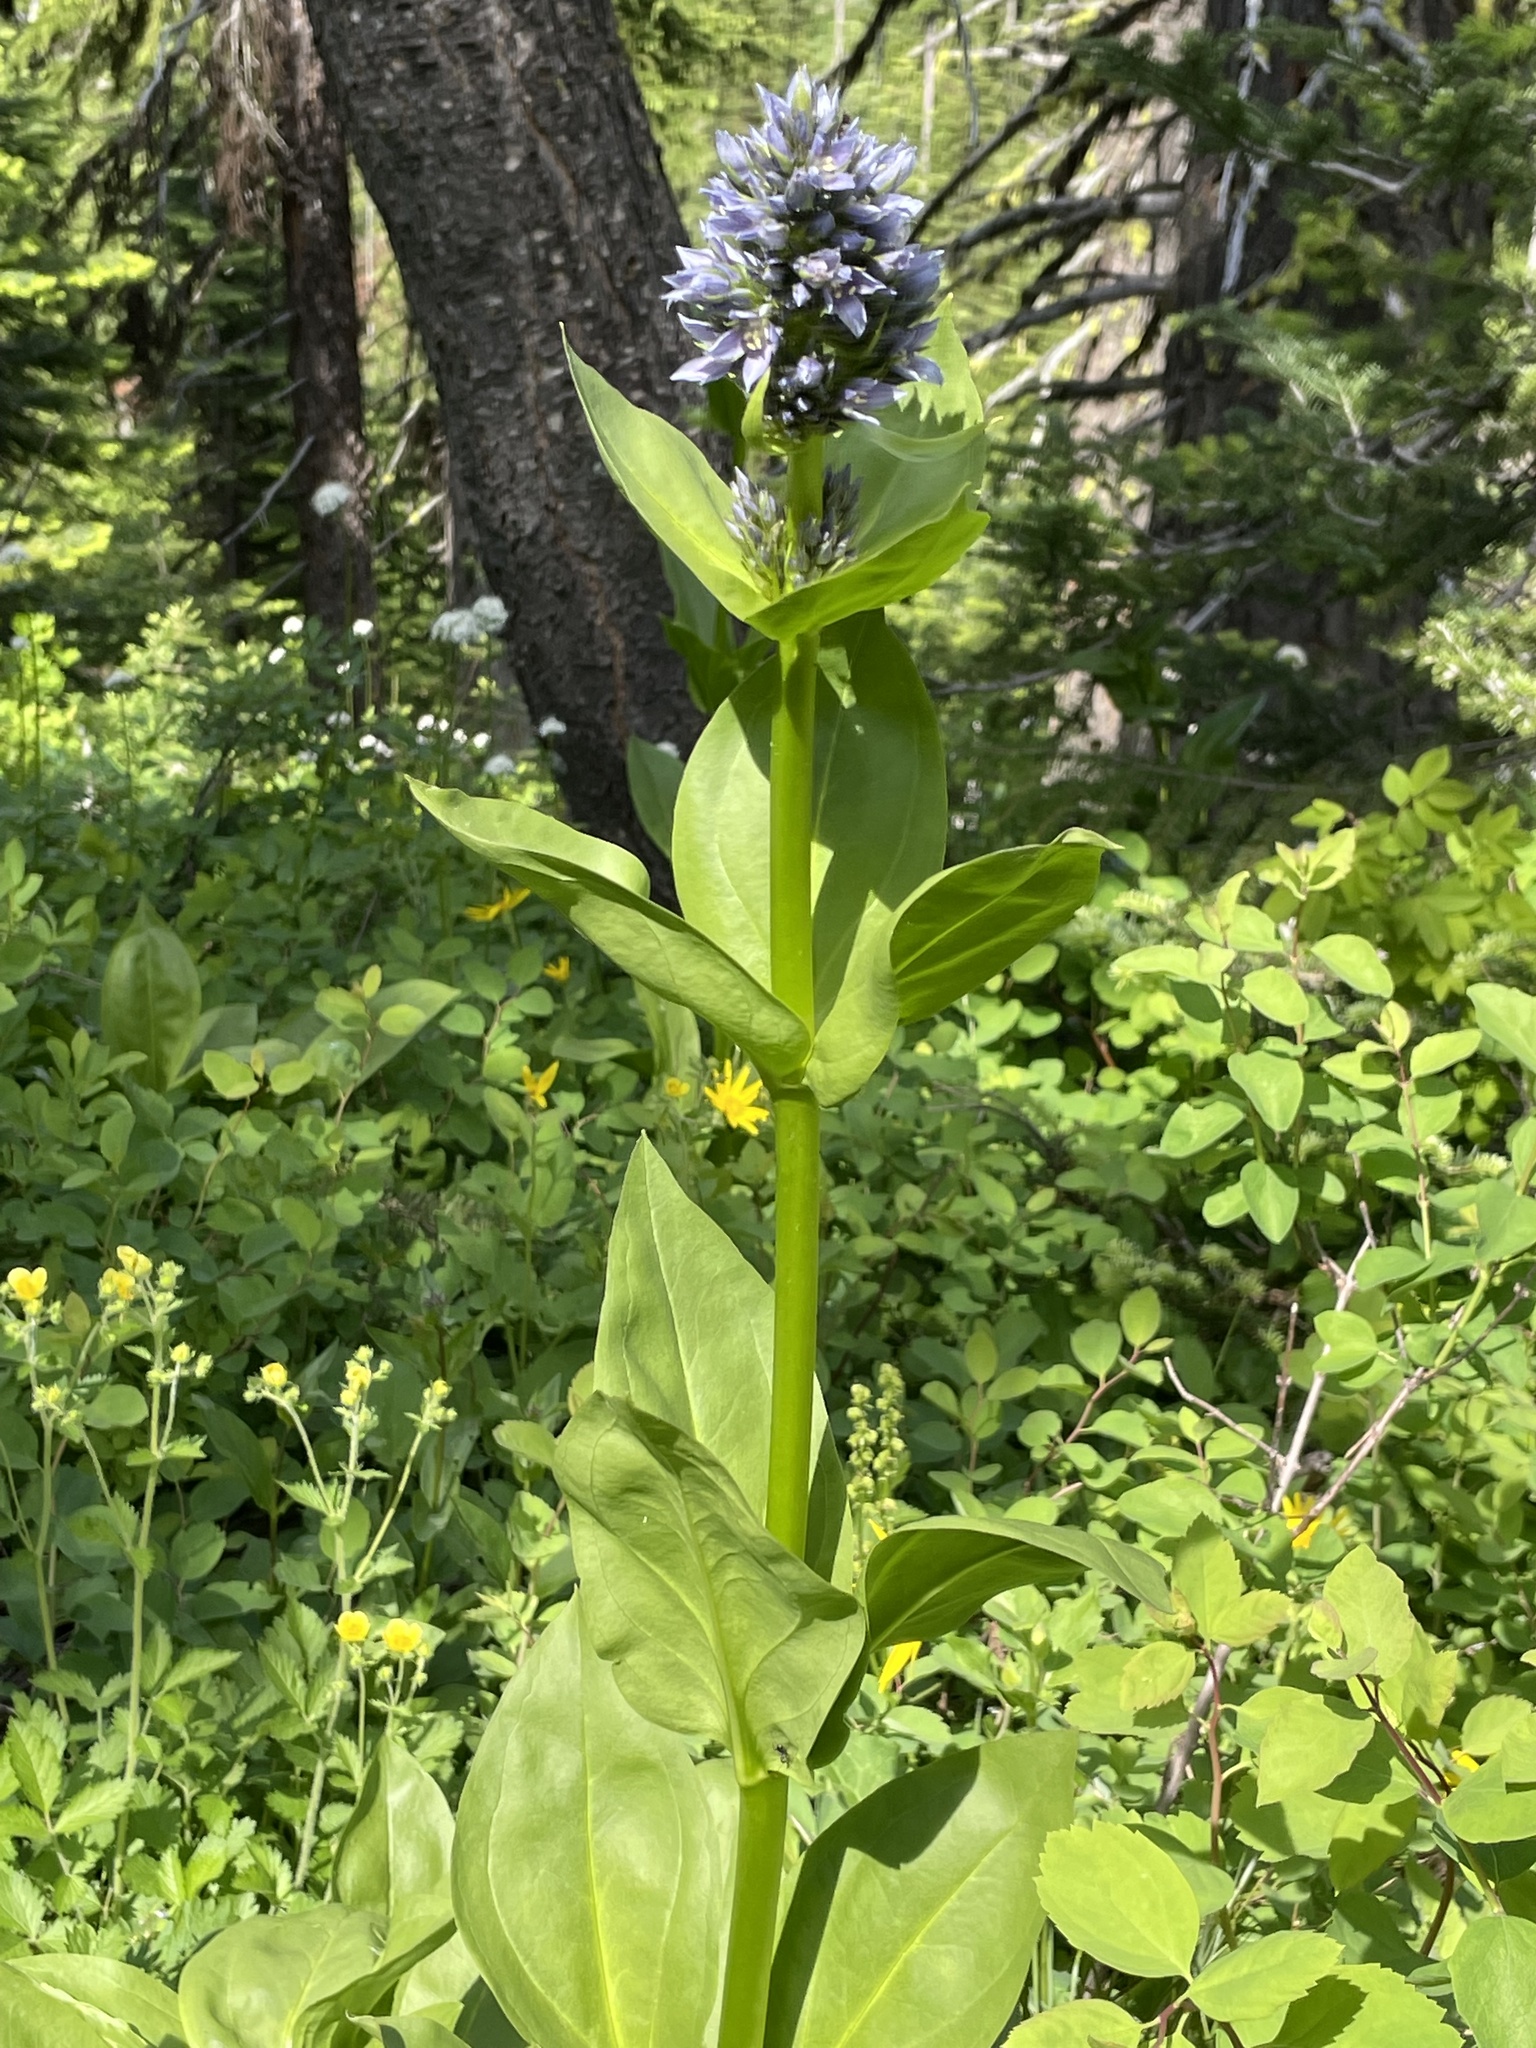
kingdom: Plantae
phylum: Tracheophyta
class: Magnoliopsida
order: Gentianales
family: Gentianaceae
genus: Frasera
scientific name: Frasera fastigiata
